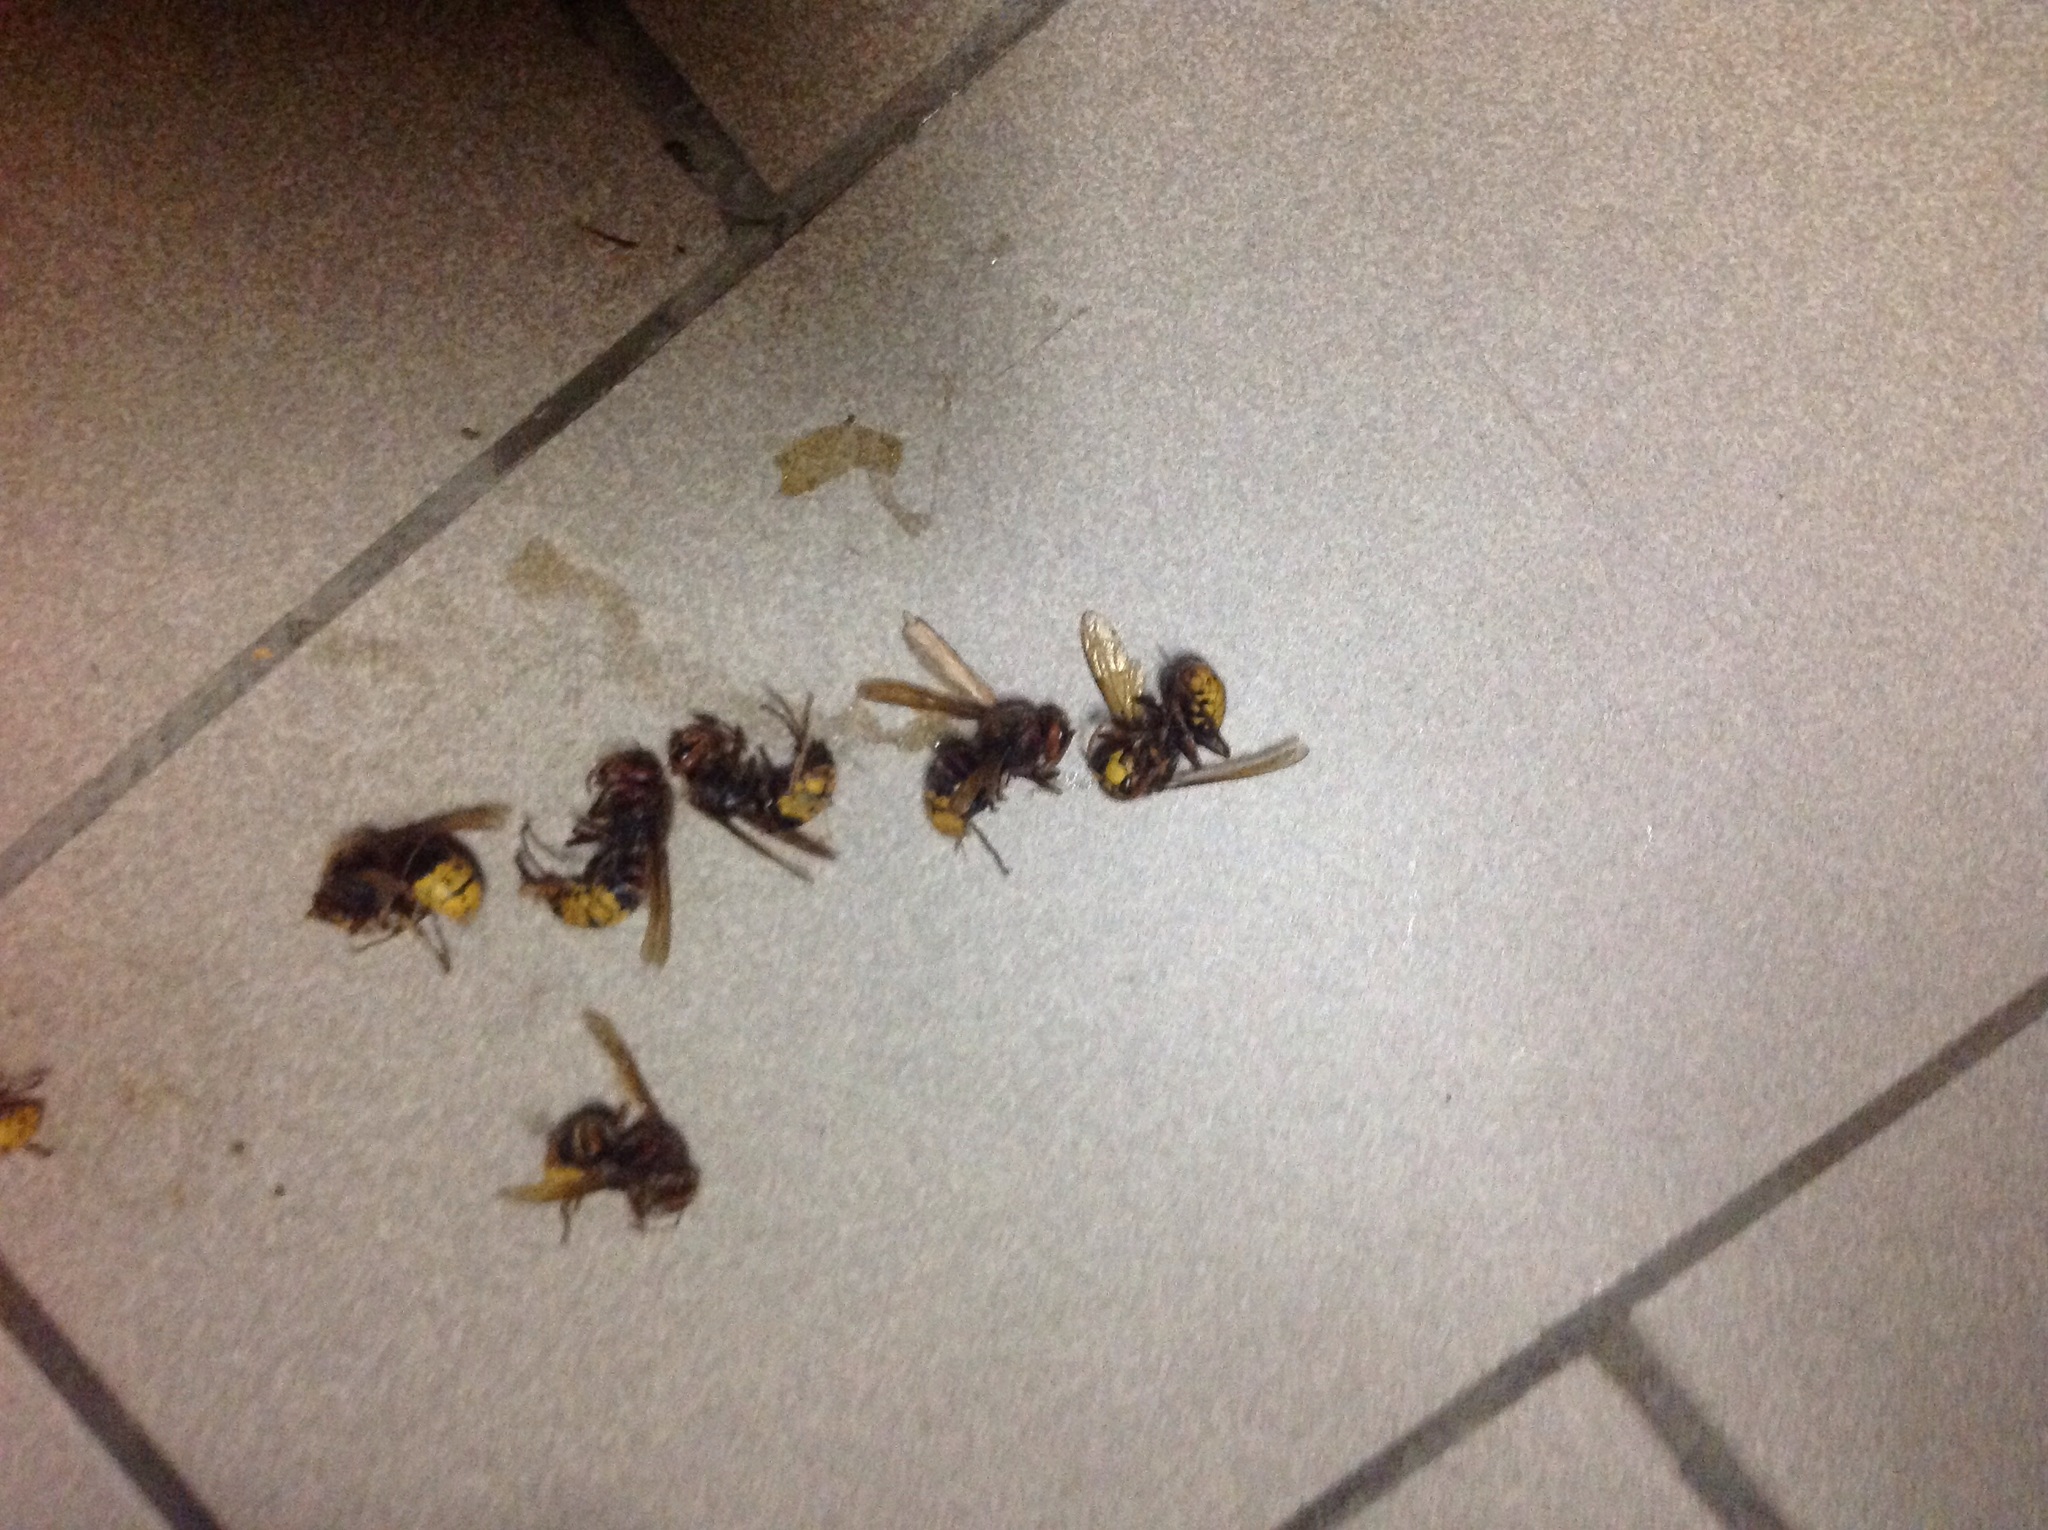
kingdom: Animalia
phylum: Arthropoda
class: Insecta
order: Hymenoptera
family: Vespidae
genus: Vespa
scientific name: Vespa crabro
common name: Hornet
